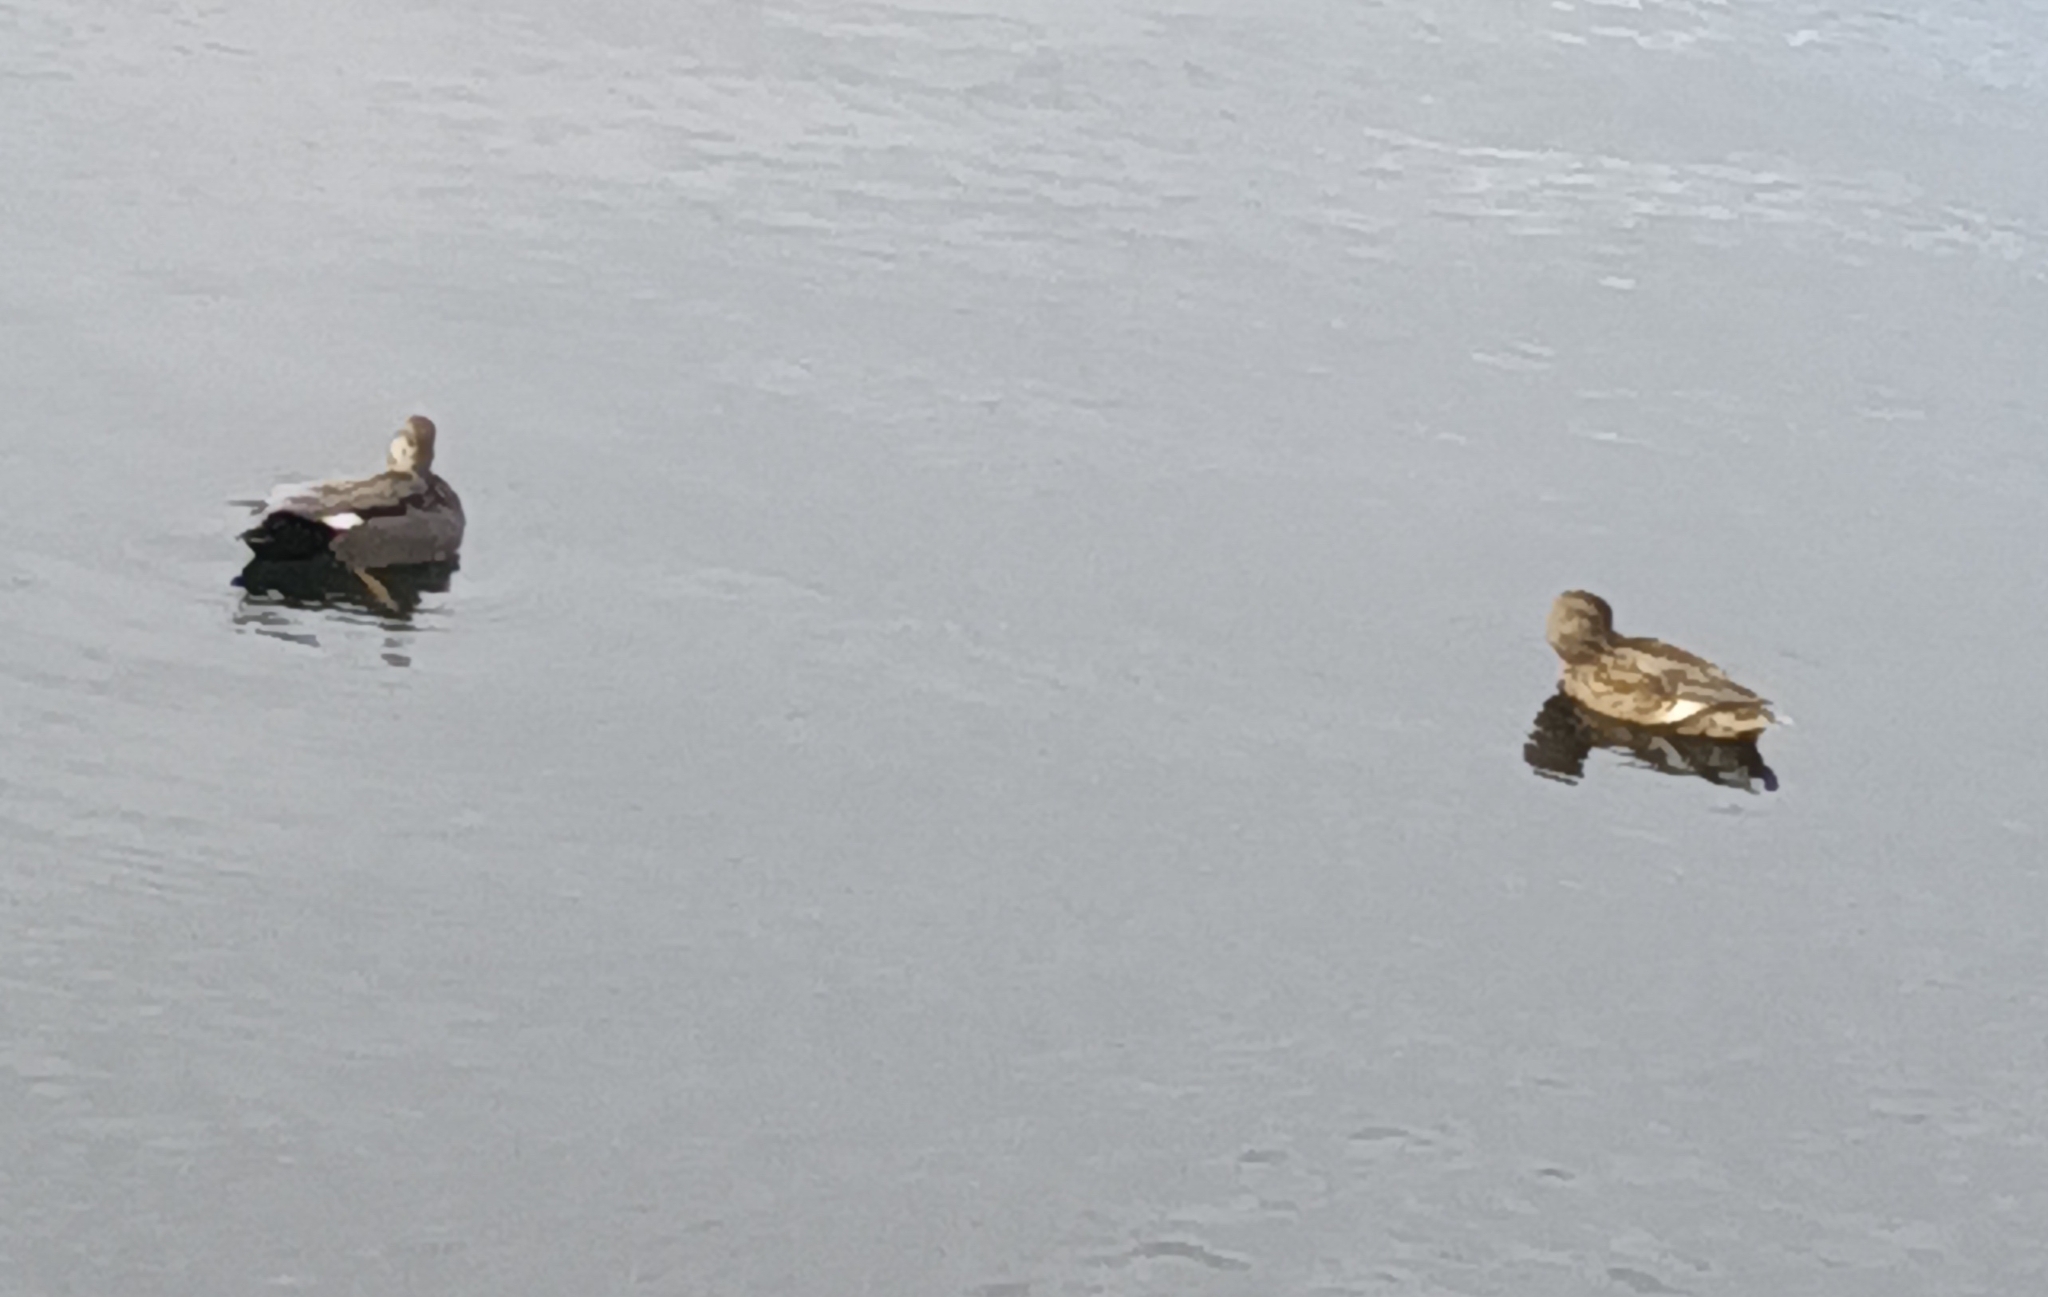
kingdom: Animalia
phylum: Chordata
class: Aves
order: Anseriformes
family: Anatidae
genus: Mareca
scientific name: Mareca strepera
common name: Gadwall
